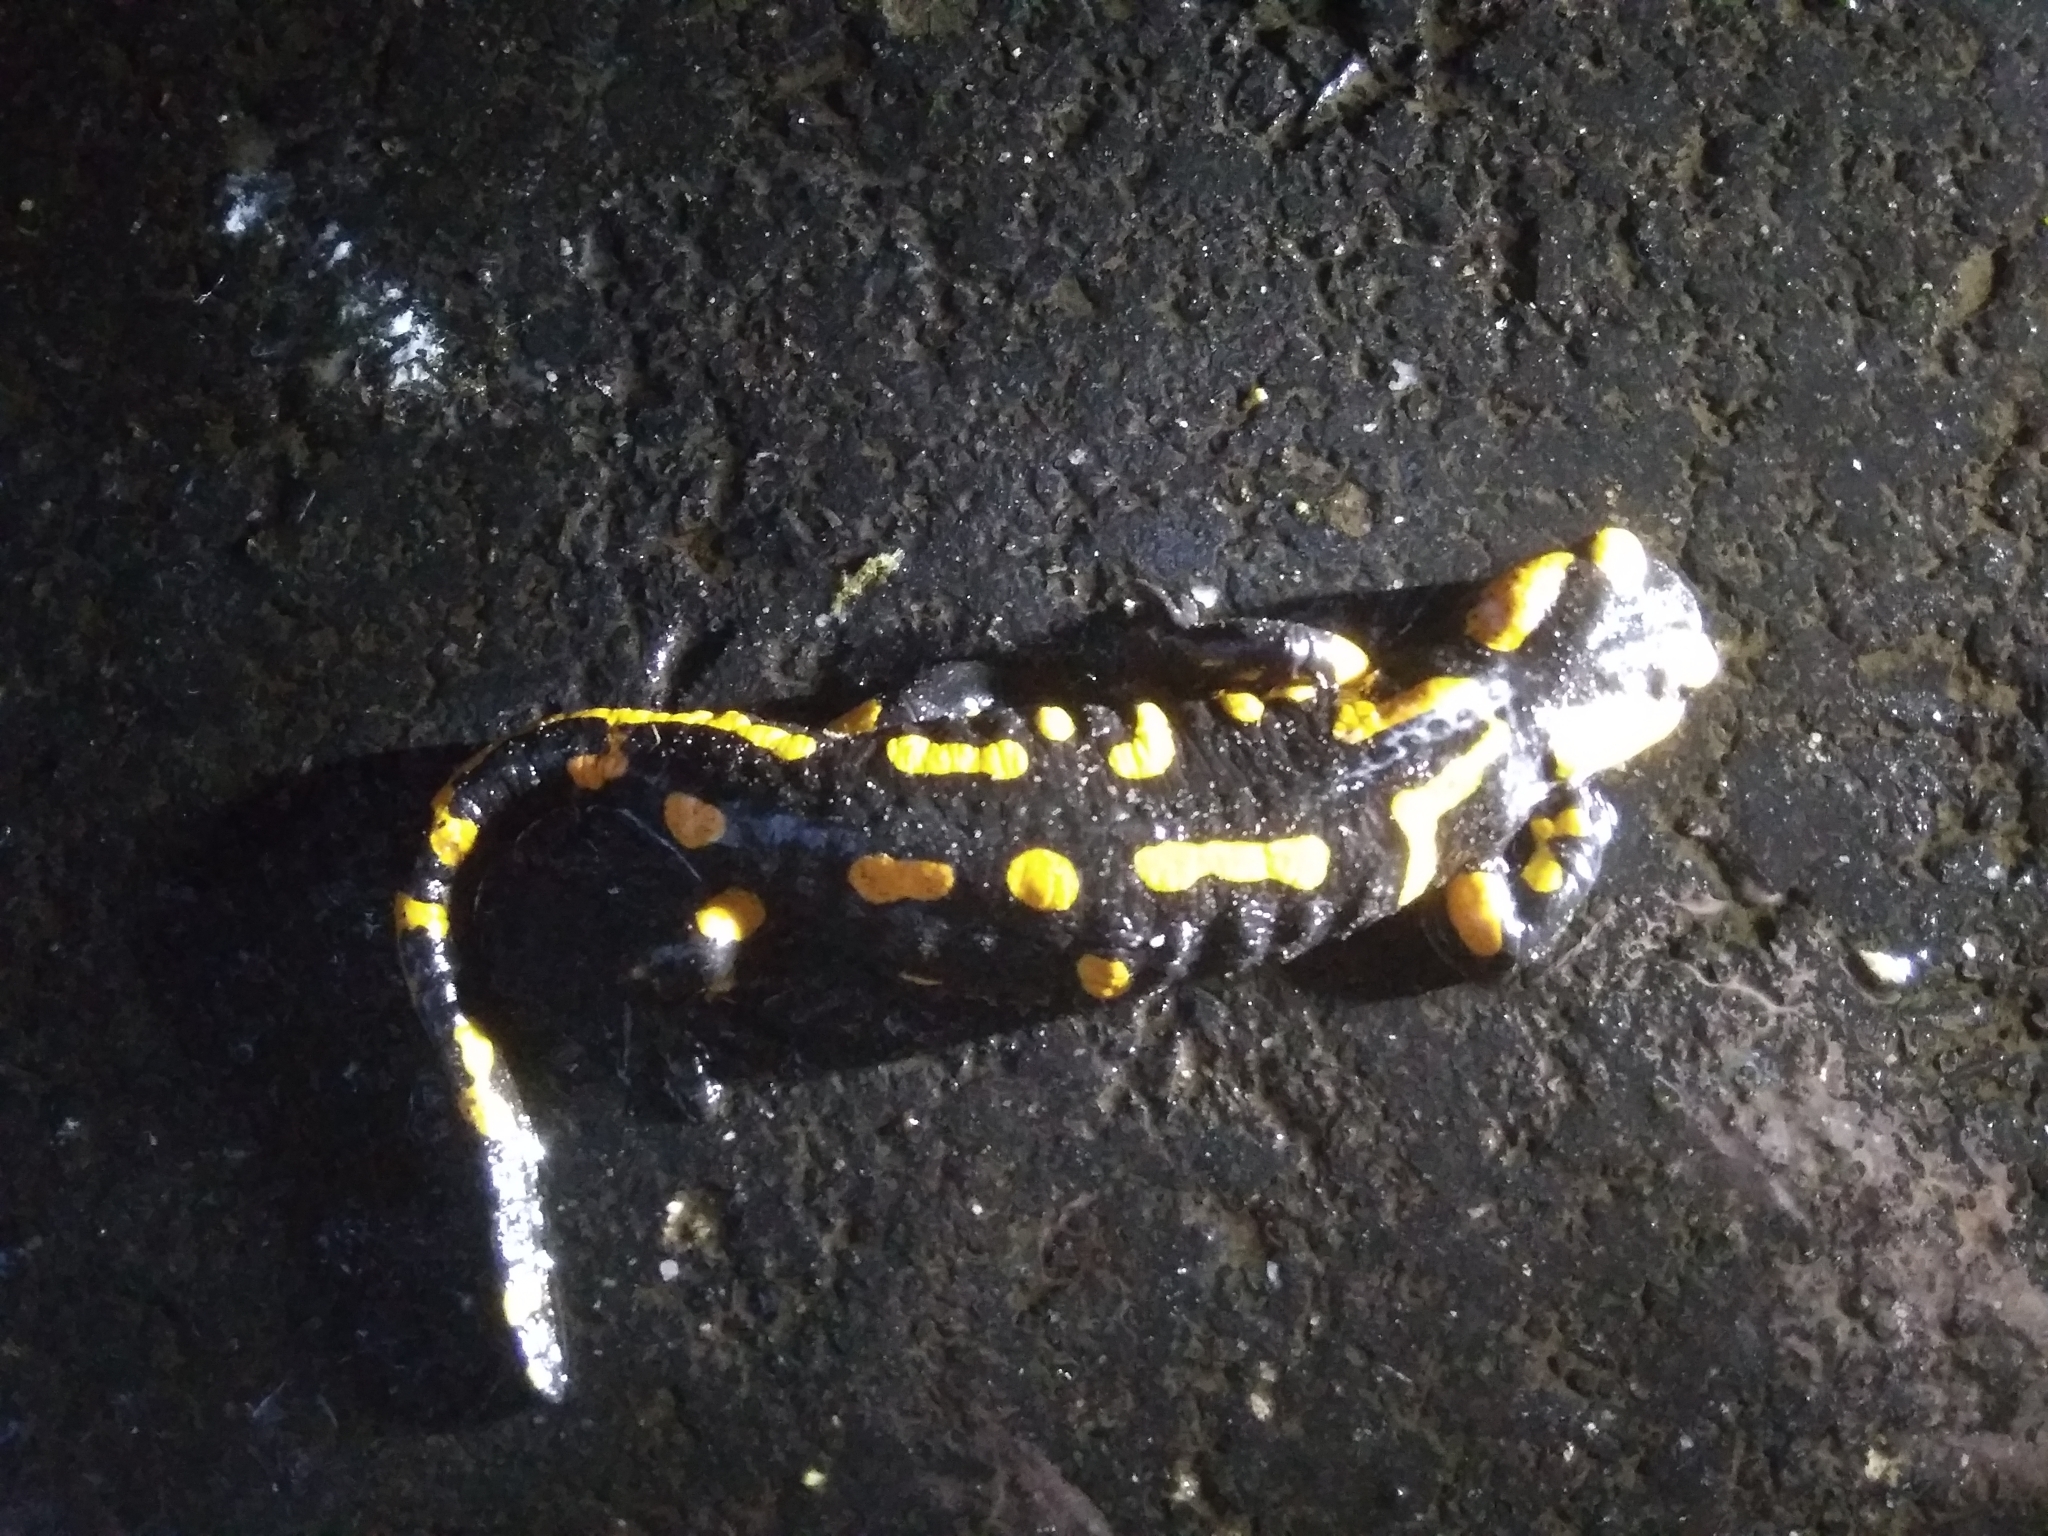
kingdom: Animalia
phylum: Chordata
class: Amphibia
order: Caudata
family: Salamandridae
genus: Salamandra
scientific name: Salamandra salamandra
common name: Fire salamander
